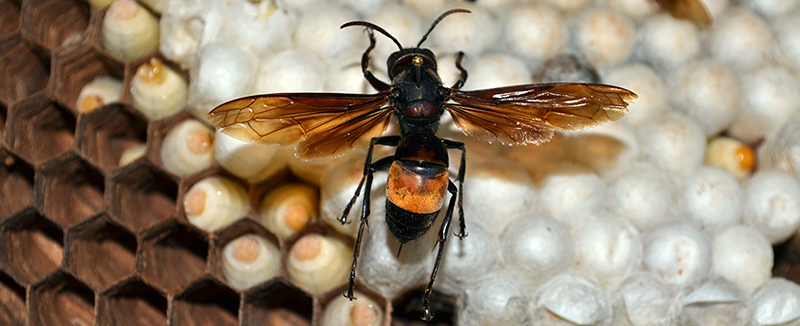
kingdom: Animalia
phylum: Arthropoda
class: Insecta
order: Hymenoptera
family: Vespidae
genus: Vespa
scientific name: Vespa tropica
